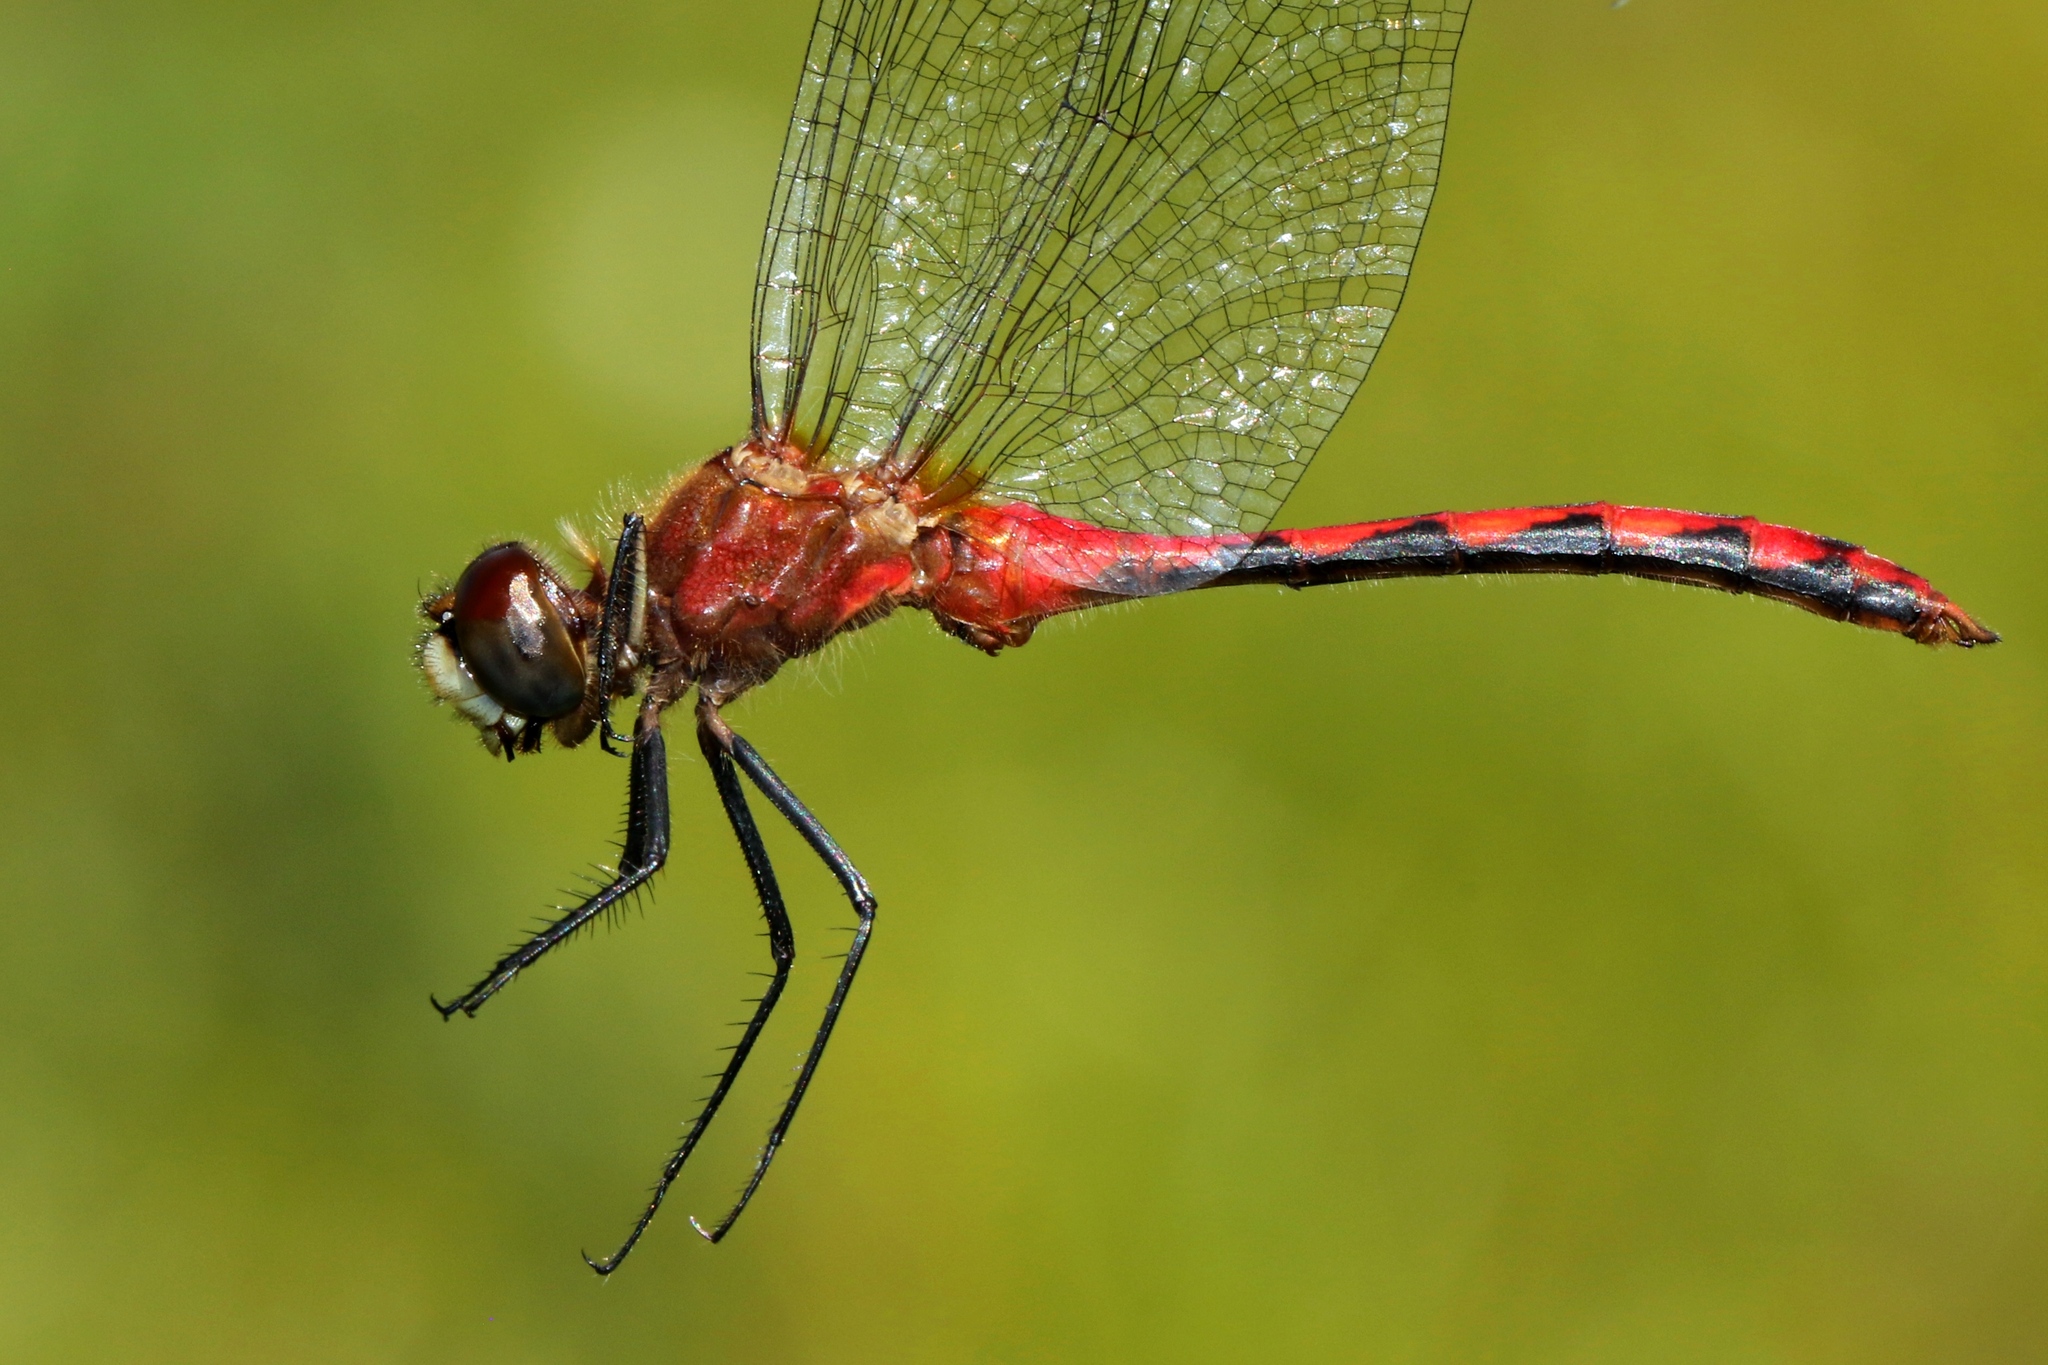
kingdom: Animalia
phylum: Arthropoda
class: Insecta
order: Odonata
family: Libellulidae
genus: Sympetrum
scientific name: Sympetrum obtrusum
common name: White-faced meadowhawk
